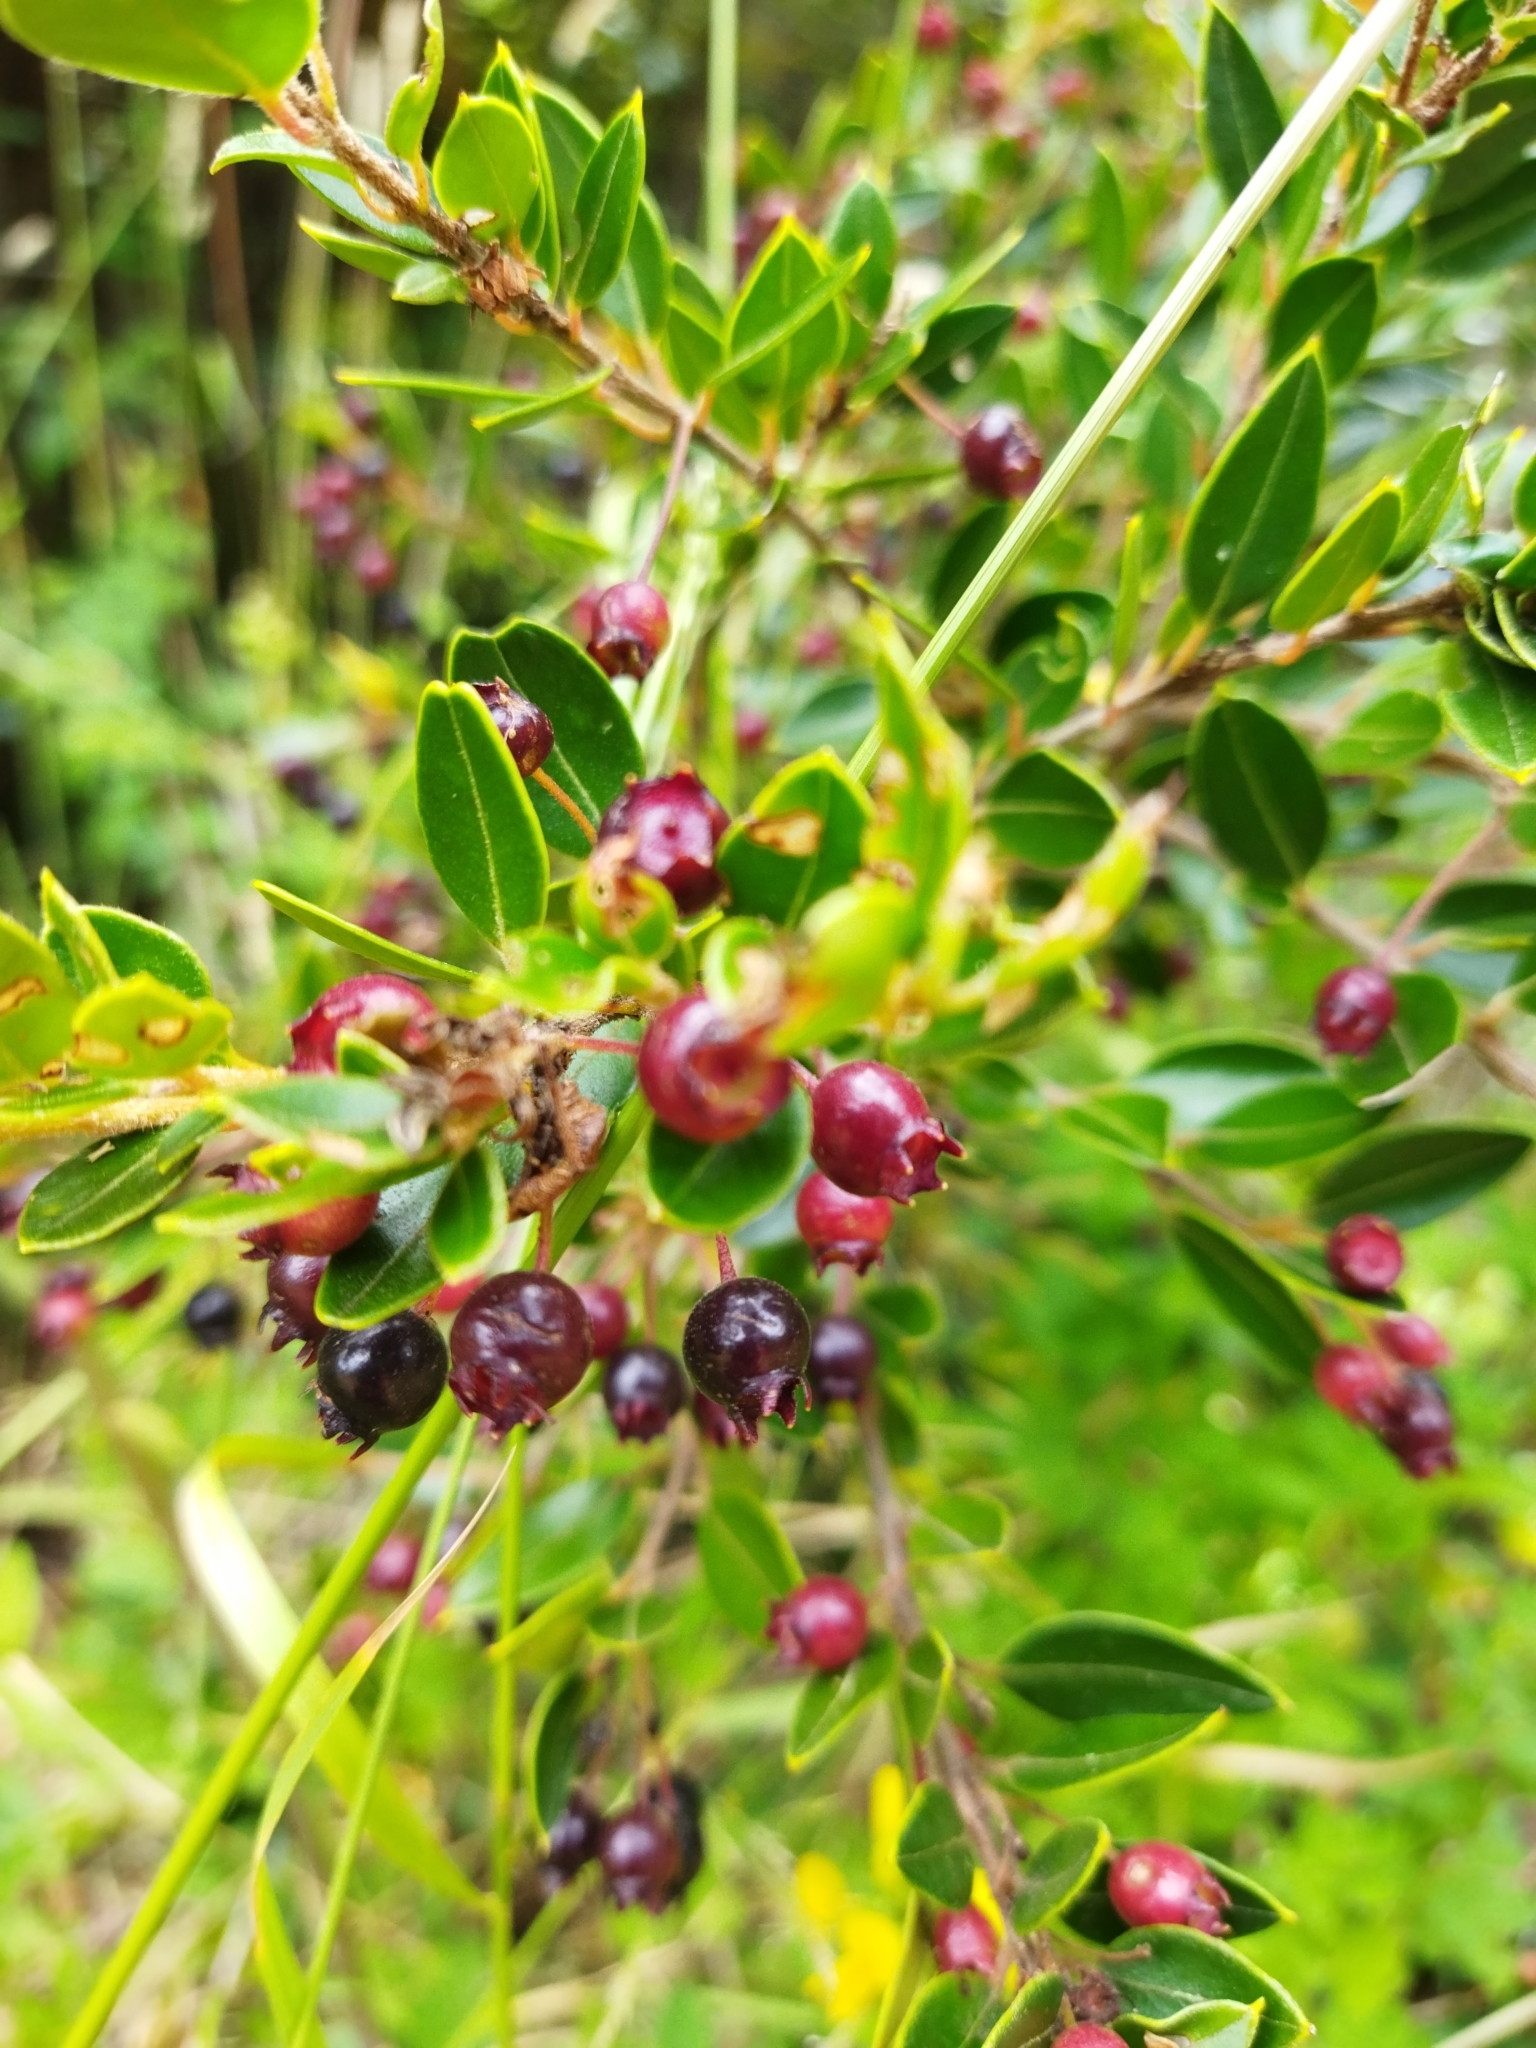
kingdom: Plantae
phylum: Tracheophyta
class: Magnoliopsida
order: Myrtales
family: Myrtaceae
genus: Amomyrtus
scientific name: Amomyrtus luma
